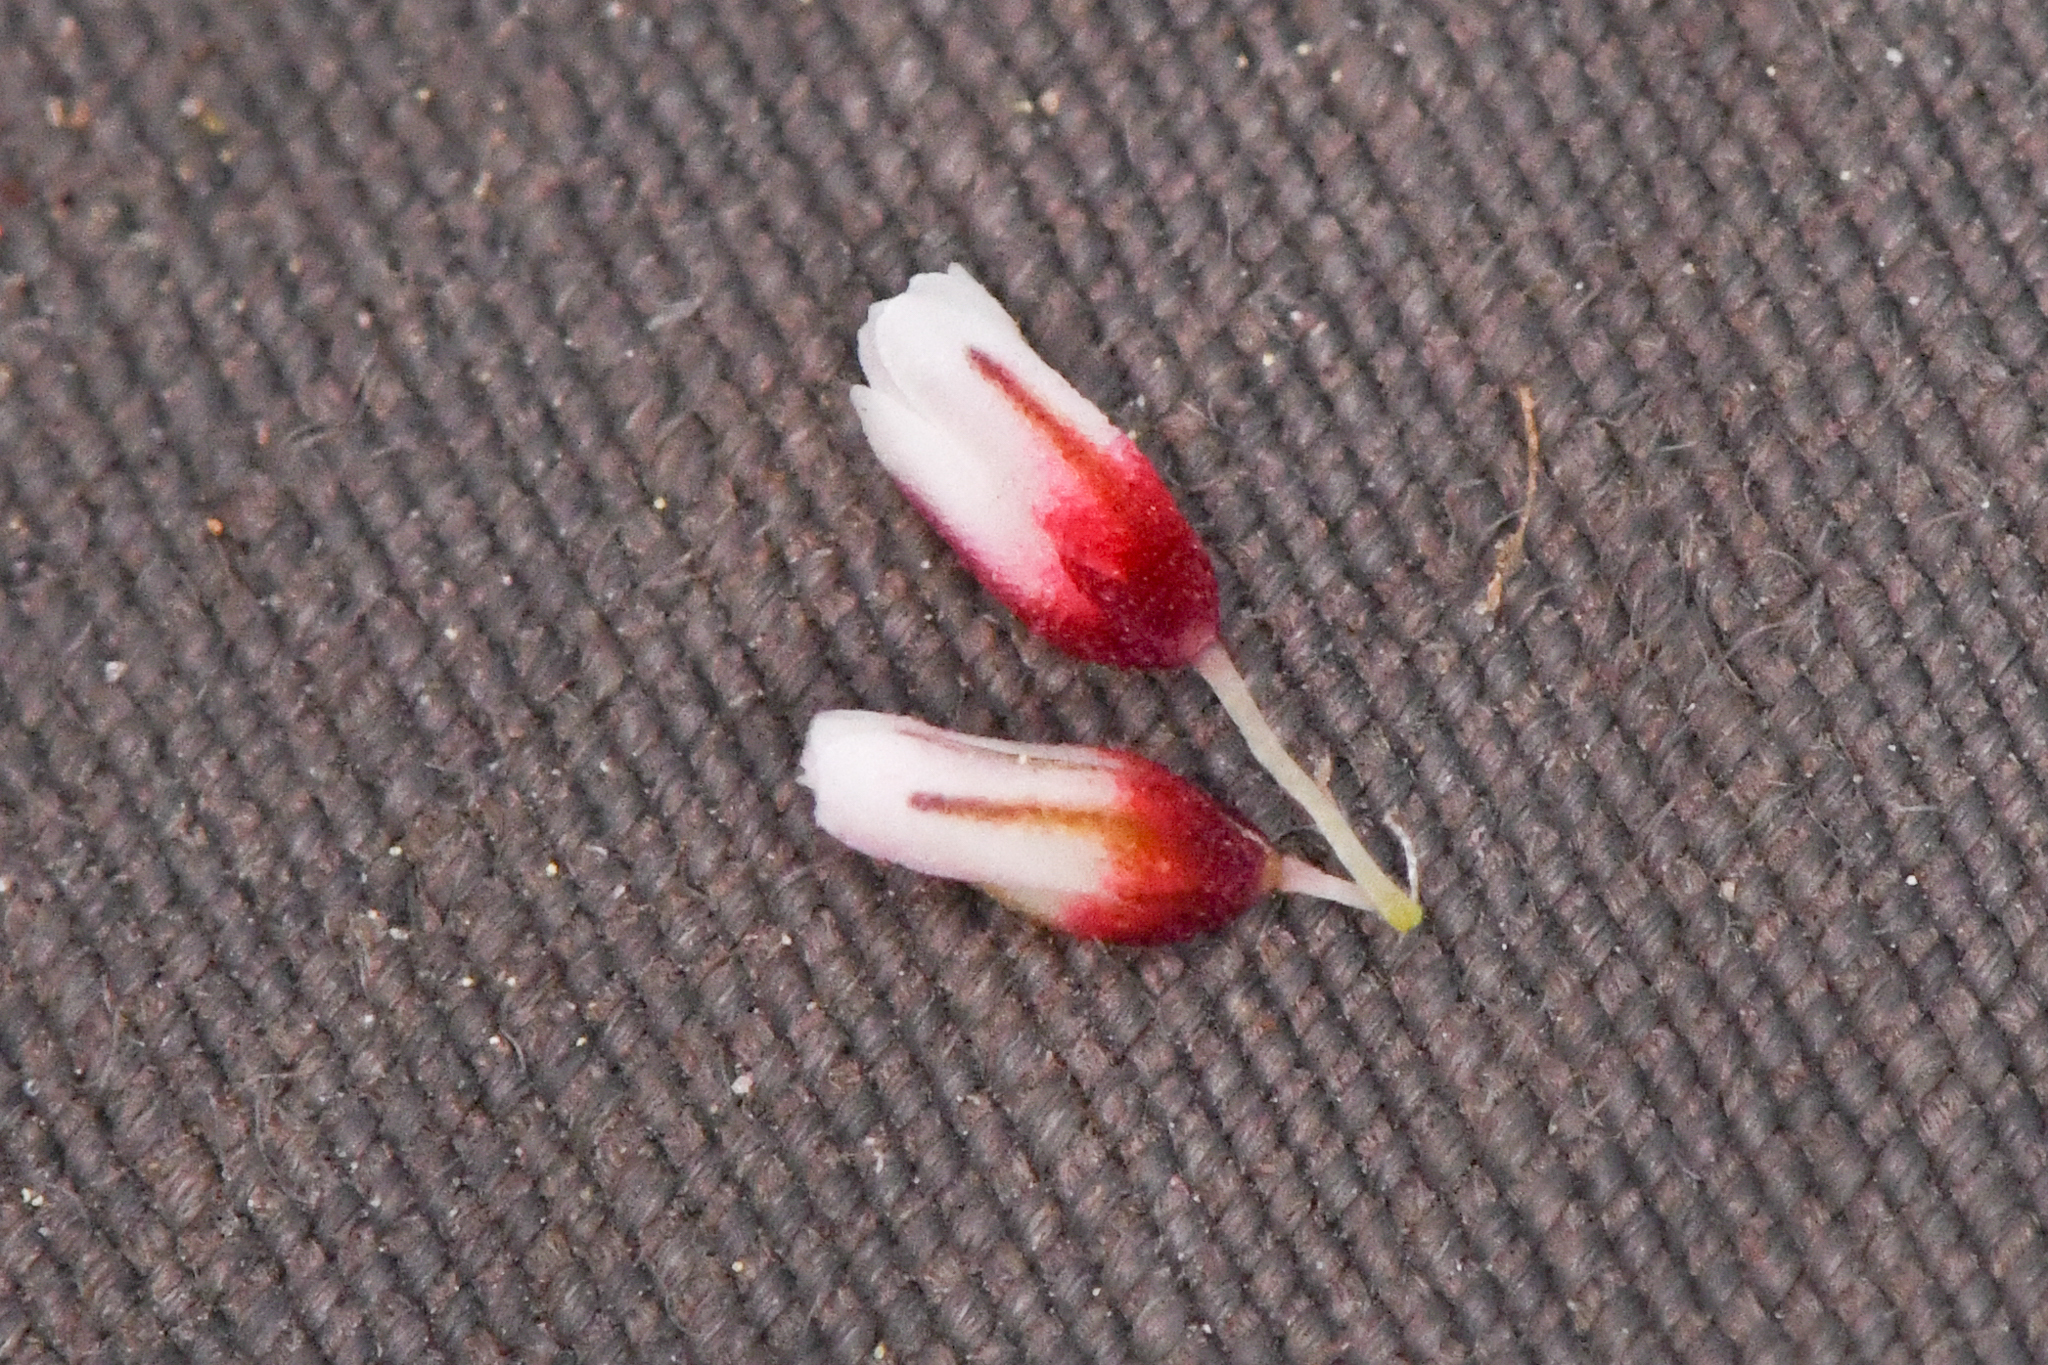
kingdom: Plantae
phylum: Tracheophyta
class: Magnoliopsida
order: Caryophyllales
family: Polygonaceae
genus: Eriogonum
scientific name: Eriogonum esmeraldense
